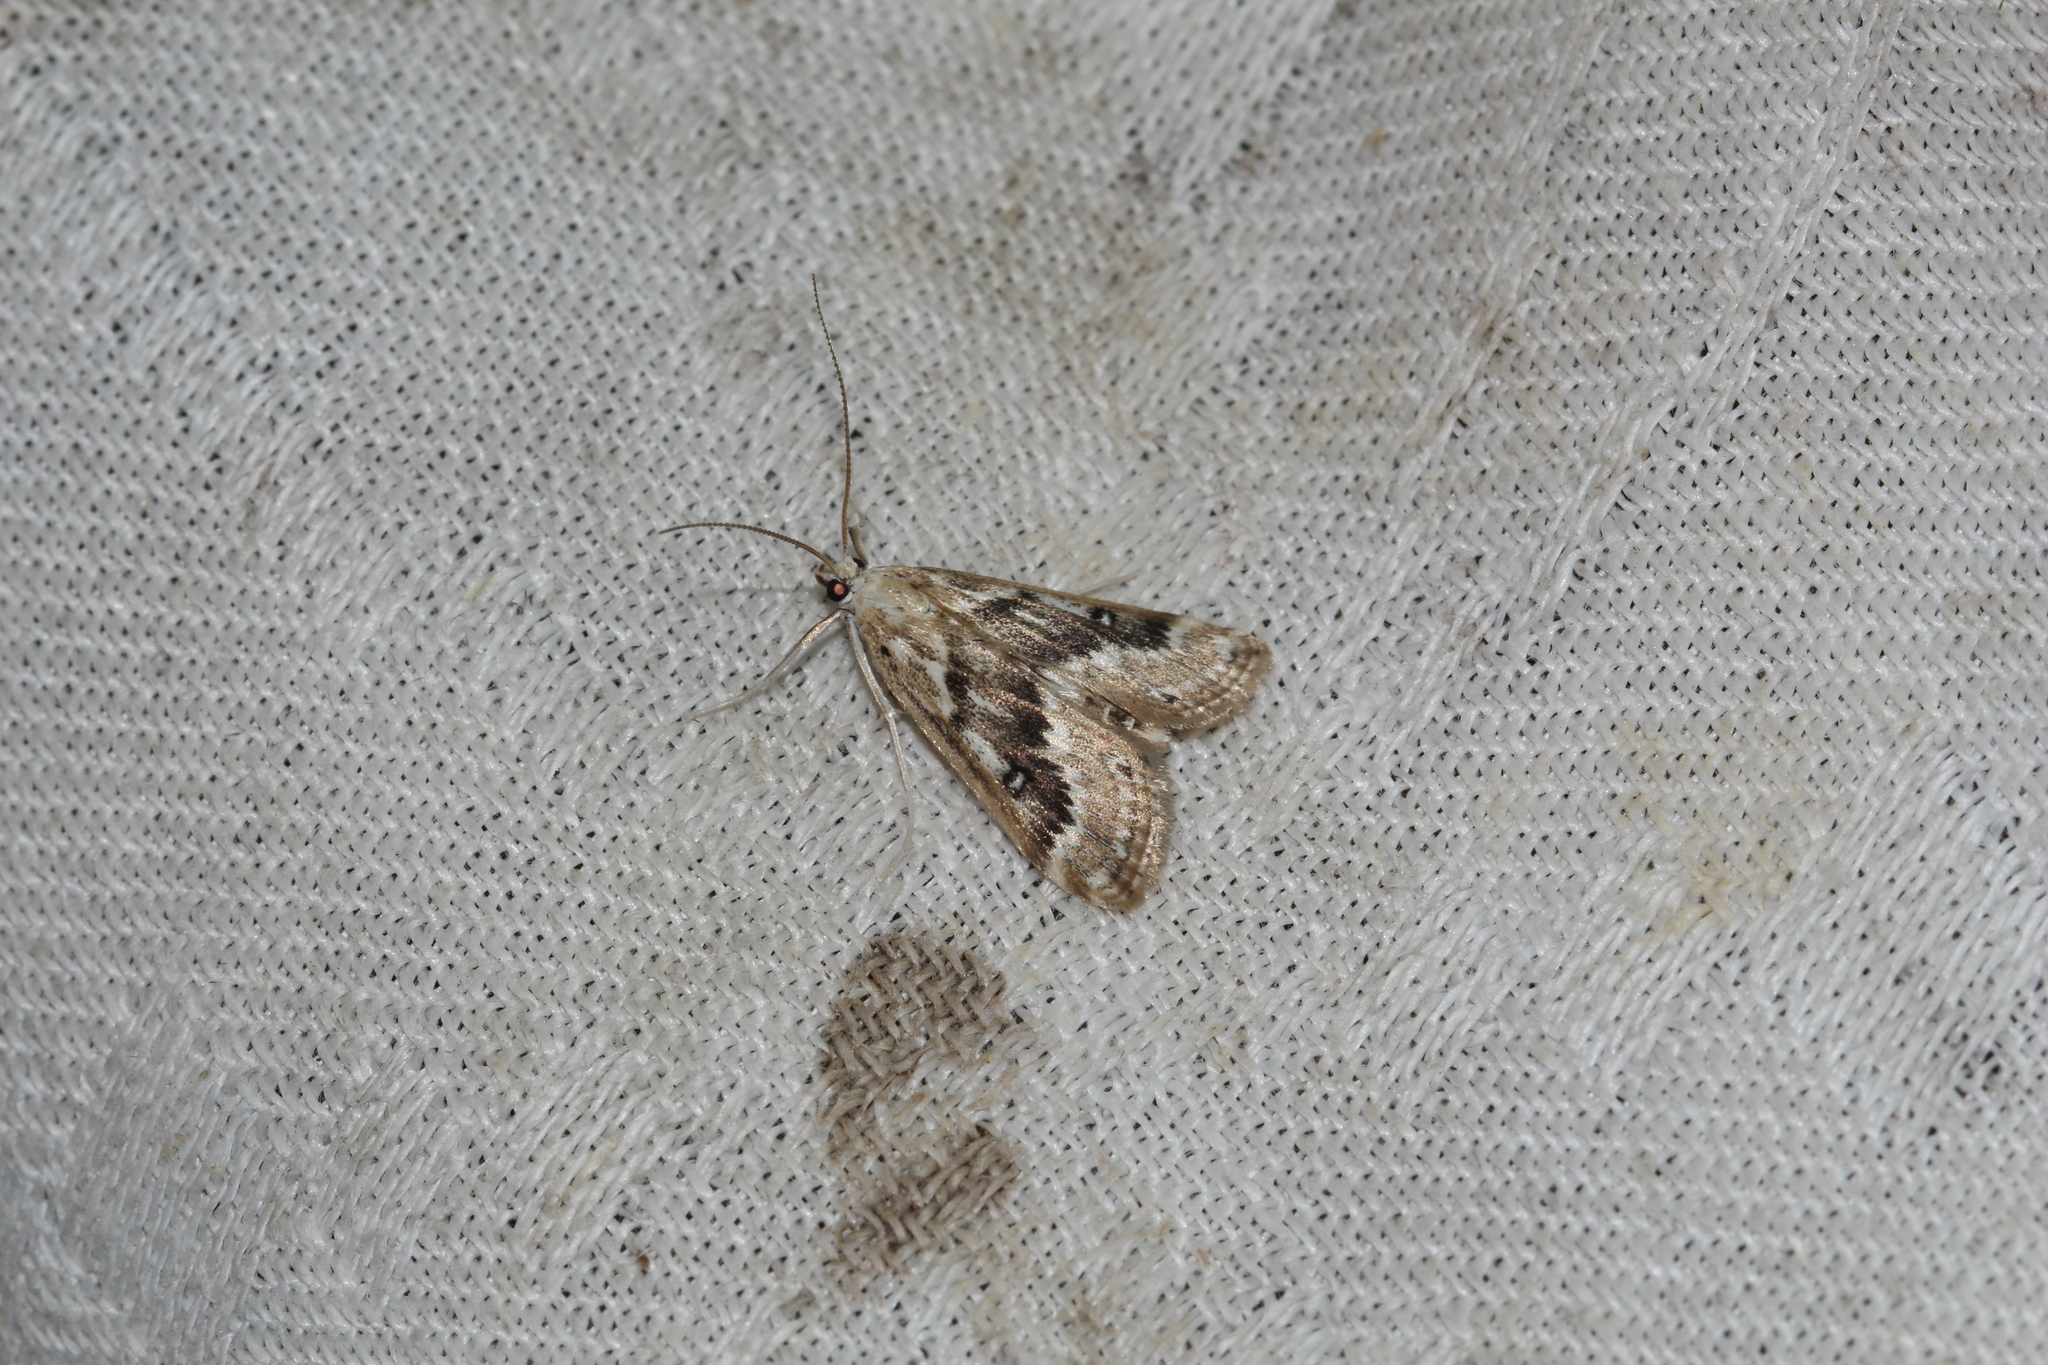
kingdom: Animalia
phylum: Arthropoda
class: Insecta
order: Lepidoptera
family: Crambidae
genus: Parapoynx
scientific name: Parapoynx stratiotata
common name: Ringed china-mark
